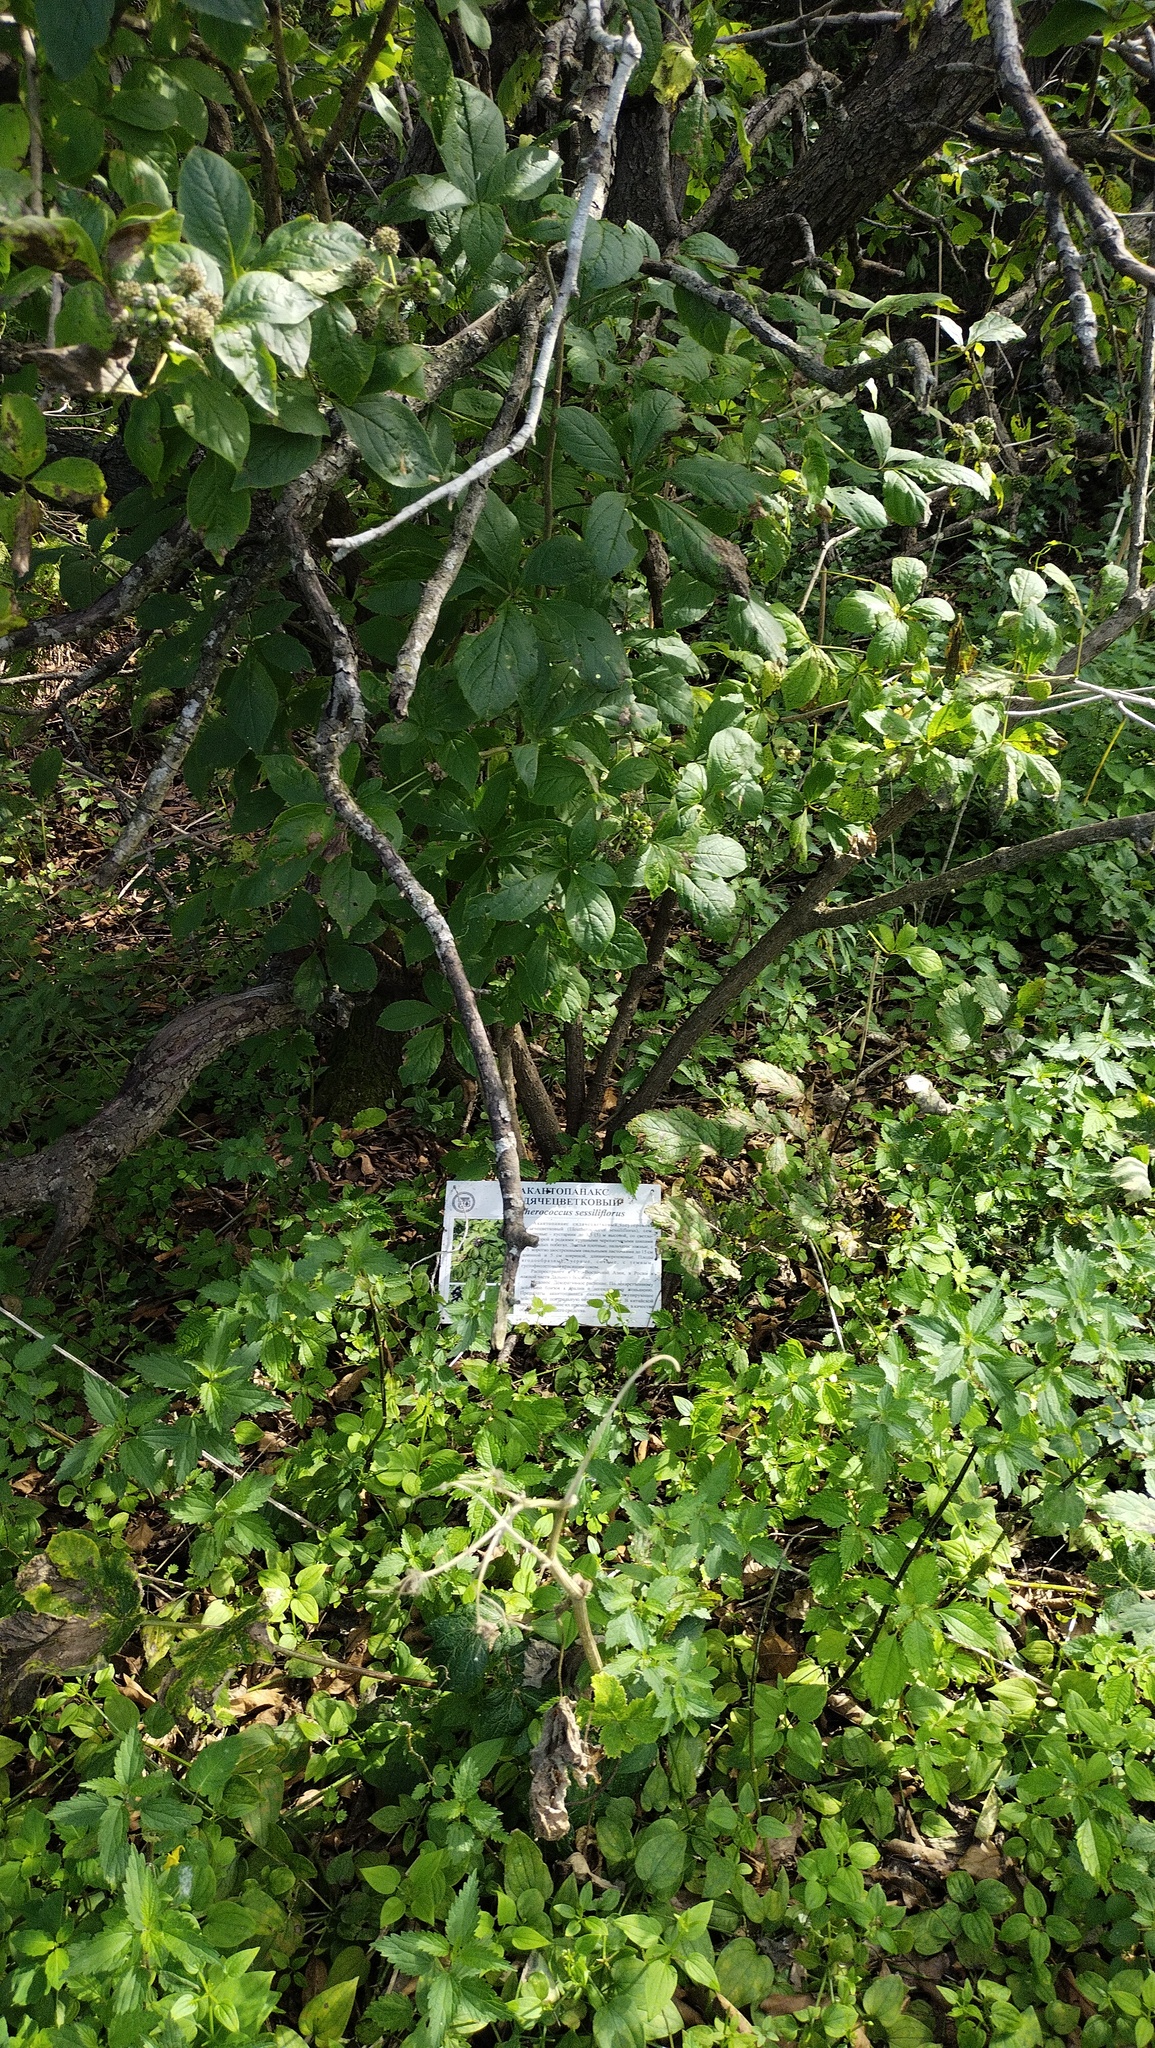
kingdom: Plantae
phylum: Tracheophyta
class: Magnoliopsida
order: Apiales
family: Araliaceae
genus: Eleutherococcus
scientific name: Eleutherococcus sessiliflorus
